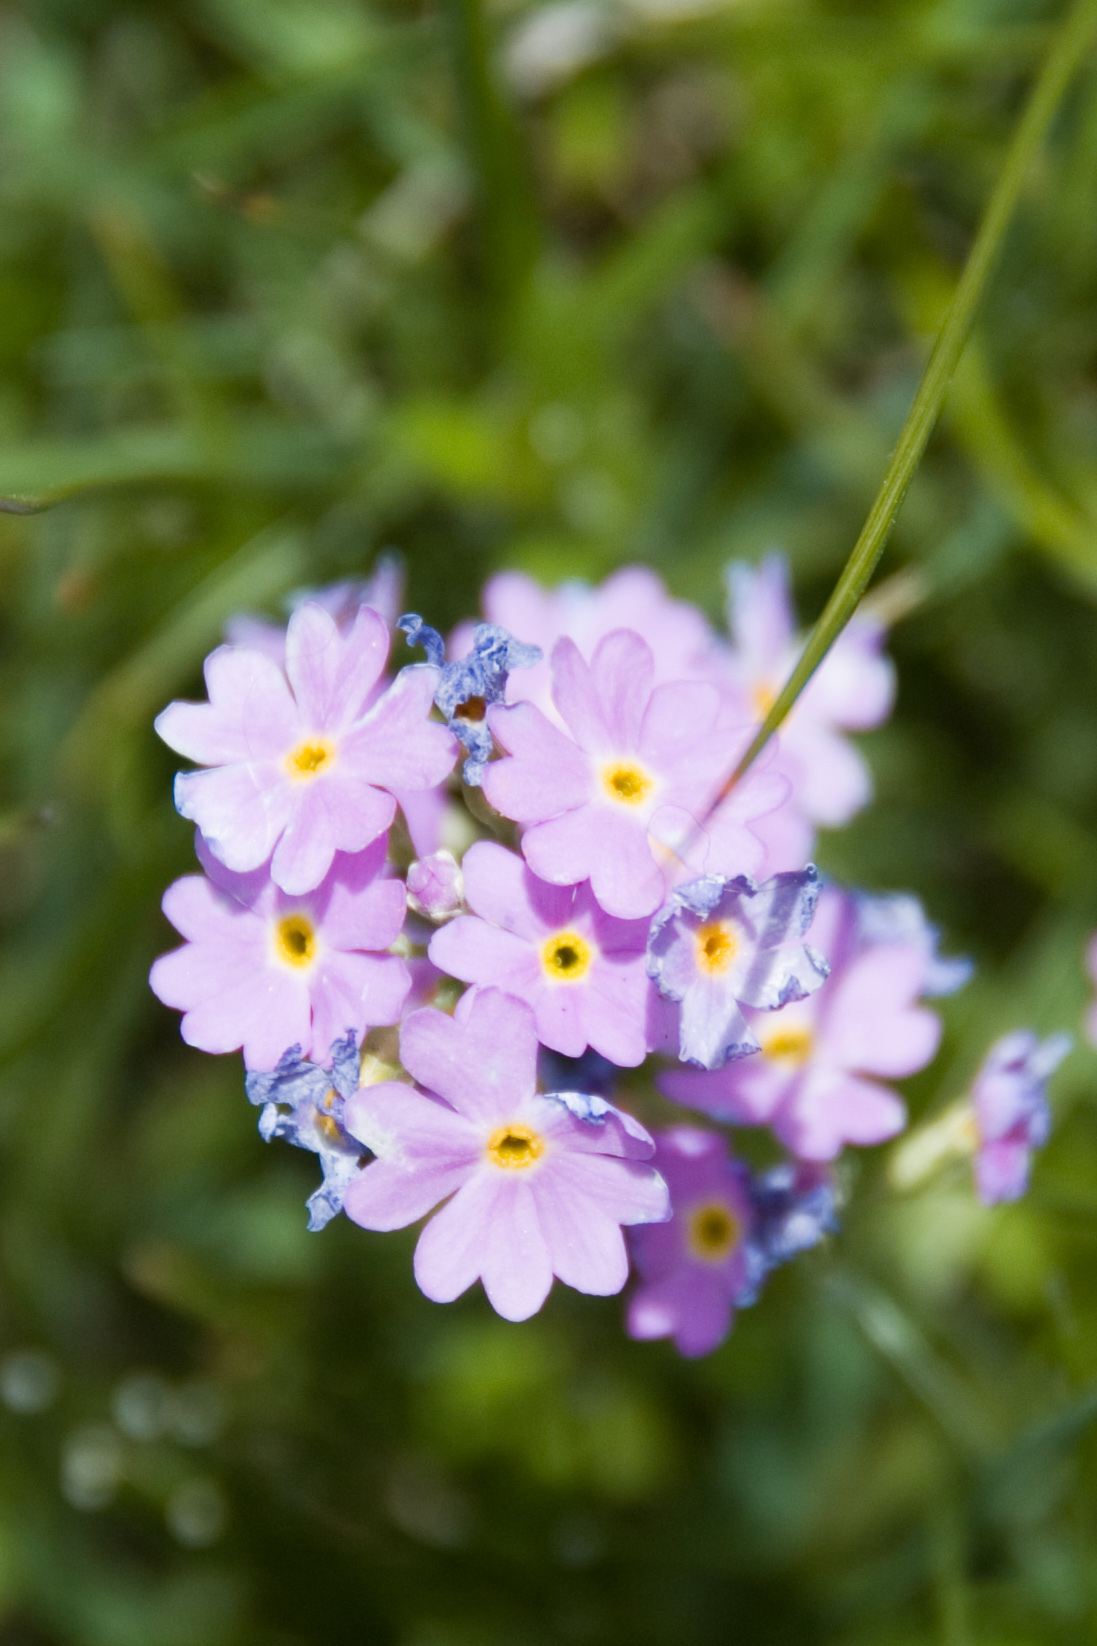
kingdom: Plantae
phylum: Tracheophyta
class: Magnoliopsida
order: Ericales
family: Primulaceae
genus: Primula
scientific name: Primula farinosa
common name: Bird's-eye primrose
